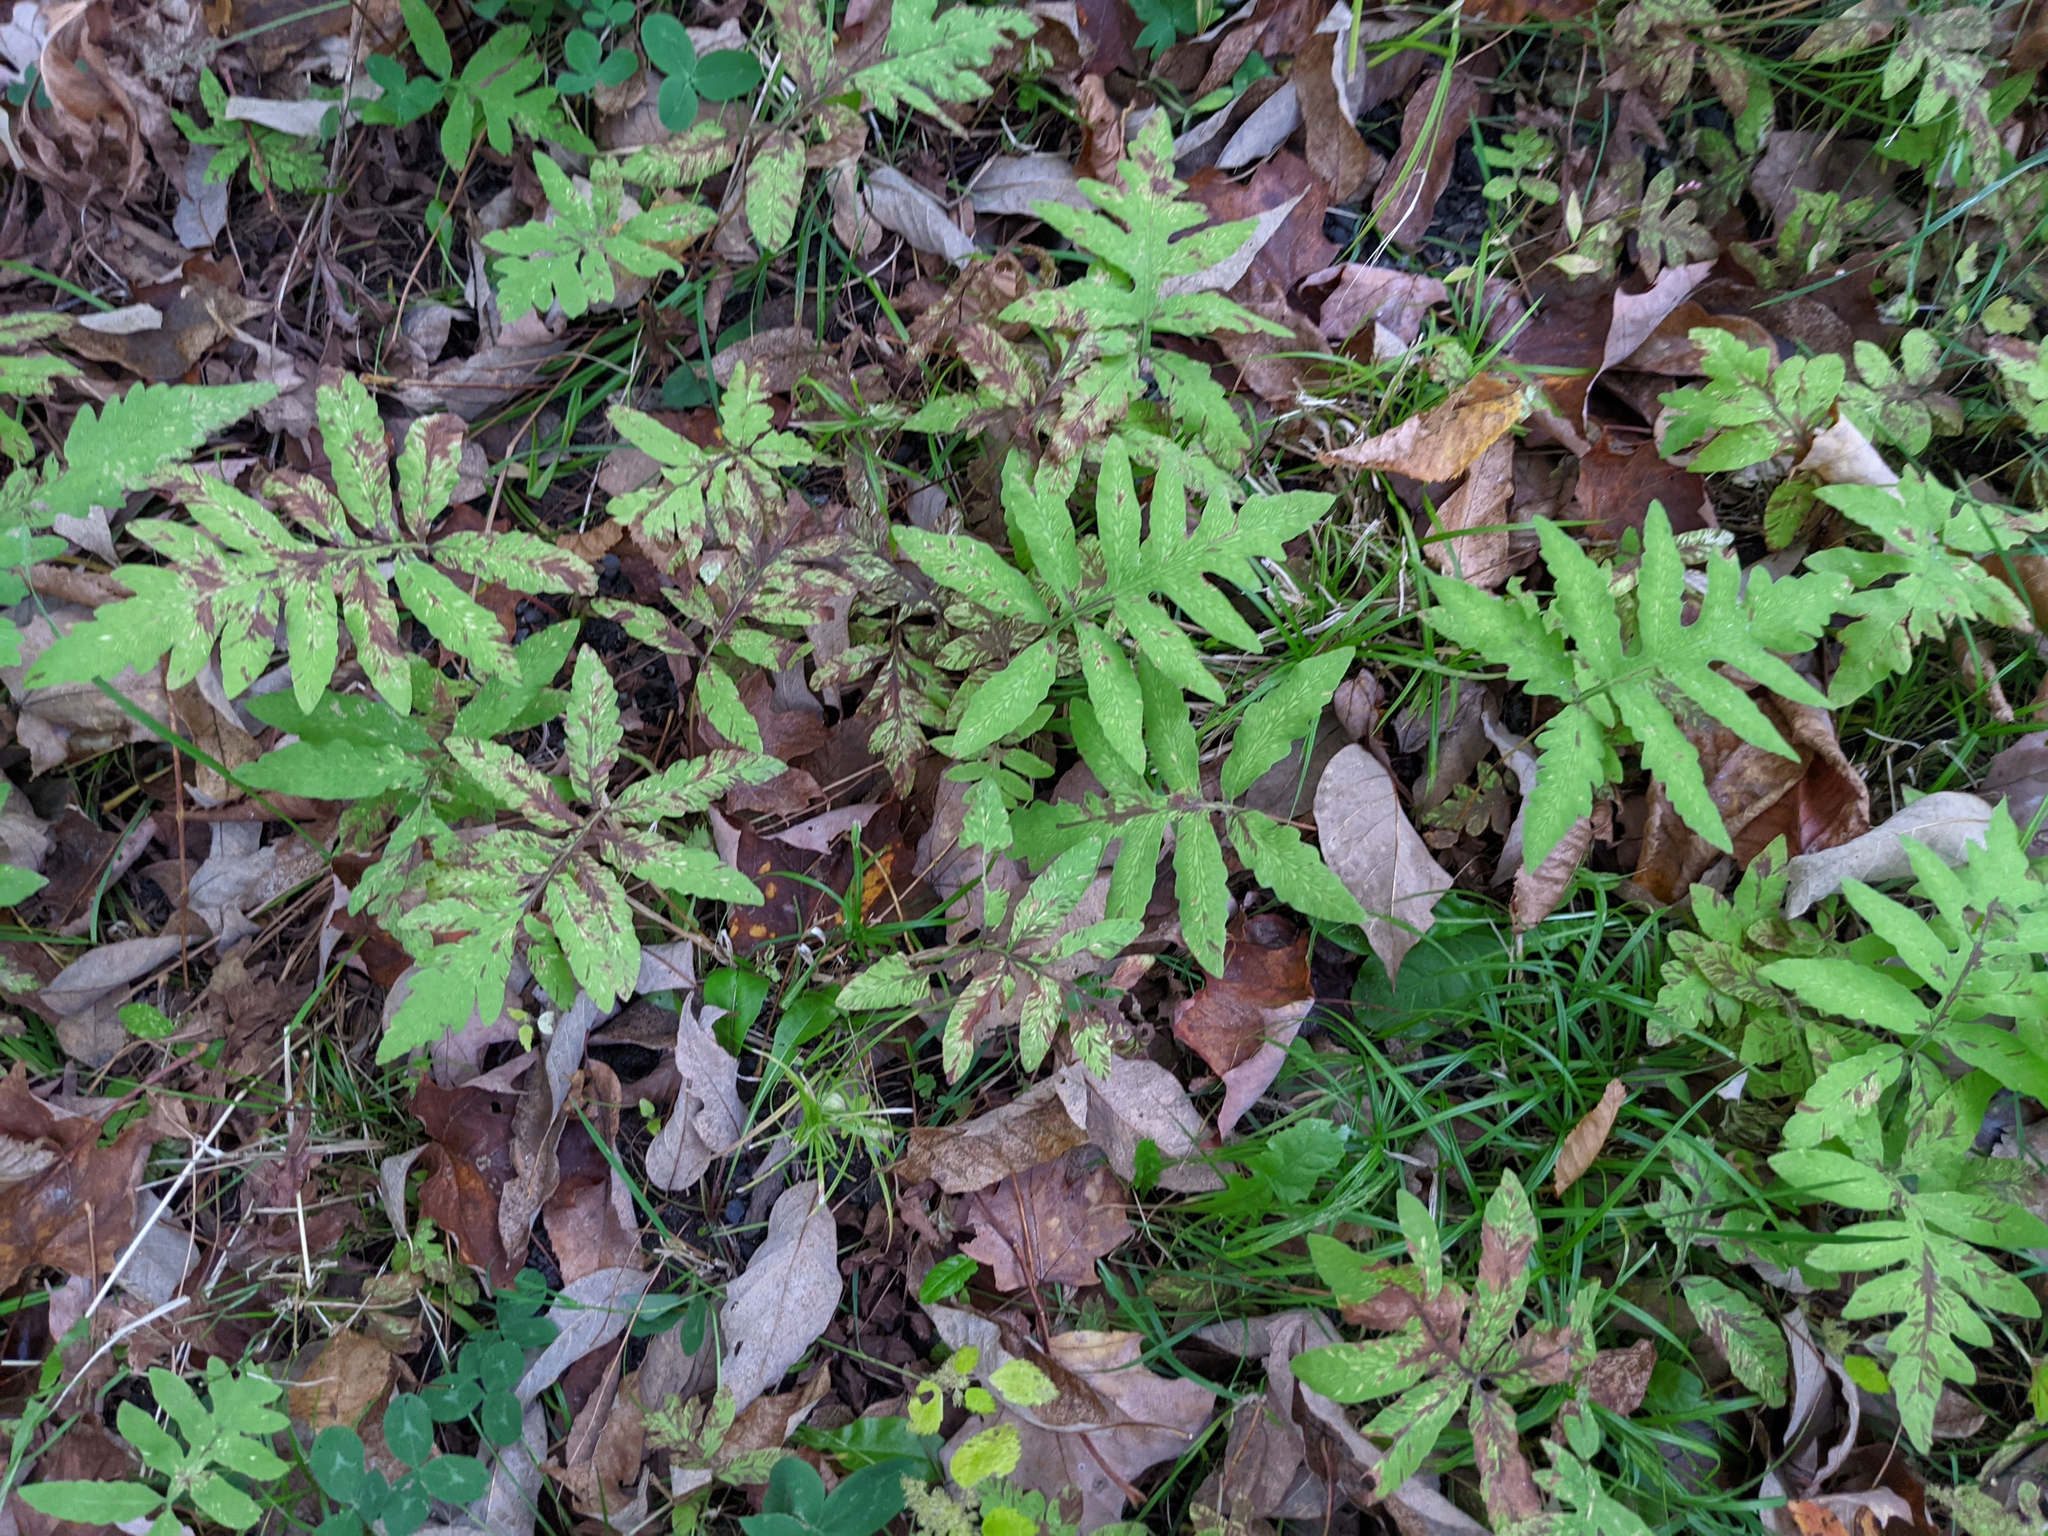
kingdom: Plantae
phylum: Tracheophyta
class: Polypodiopsida
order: Polypodiales
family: Onocleaceae
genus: Onoclea
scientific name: Onoclea sensibilis
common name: Sensitive fern
